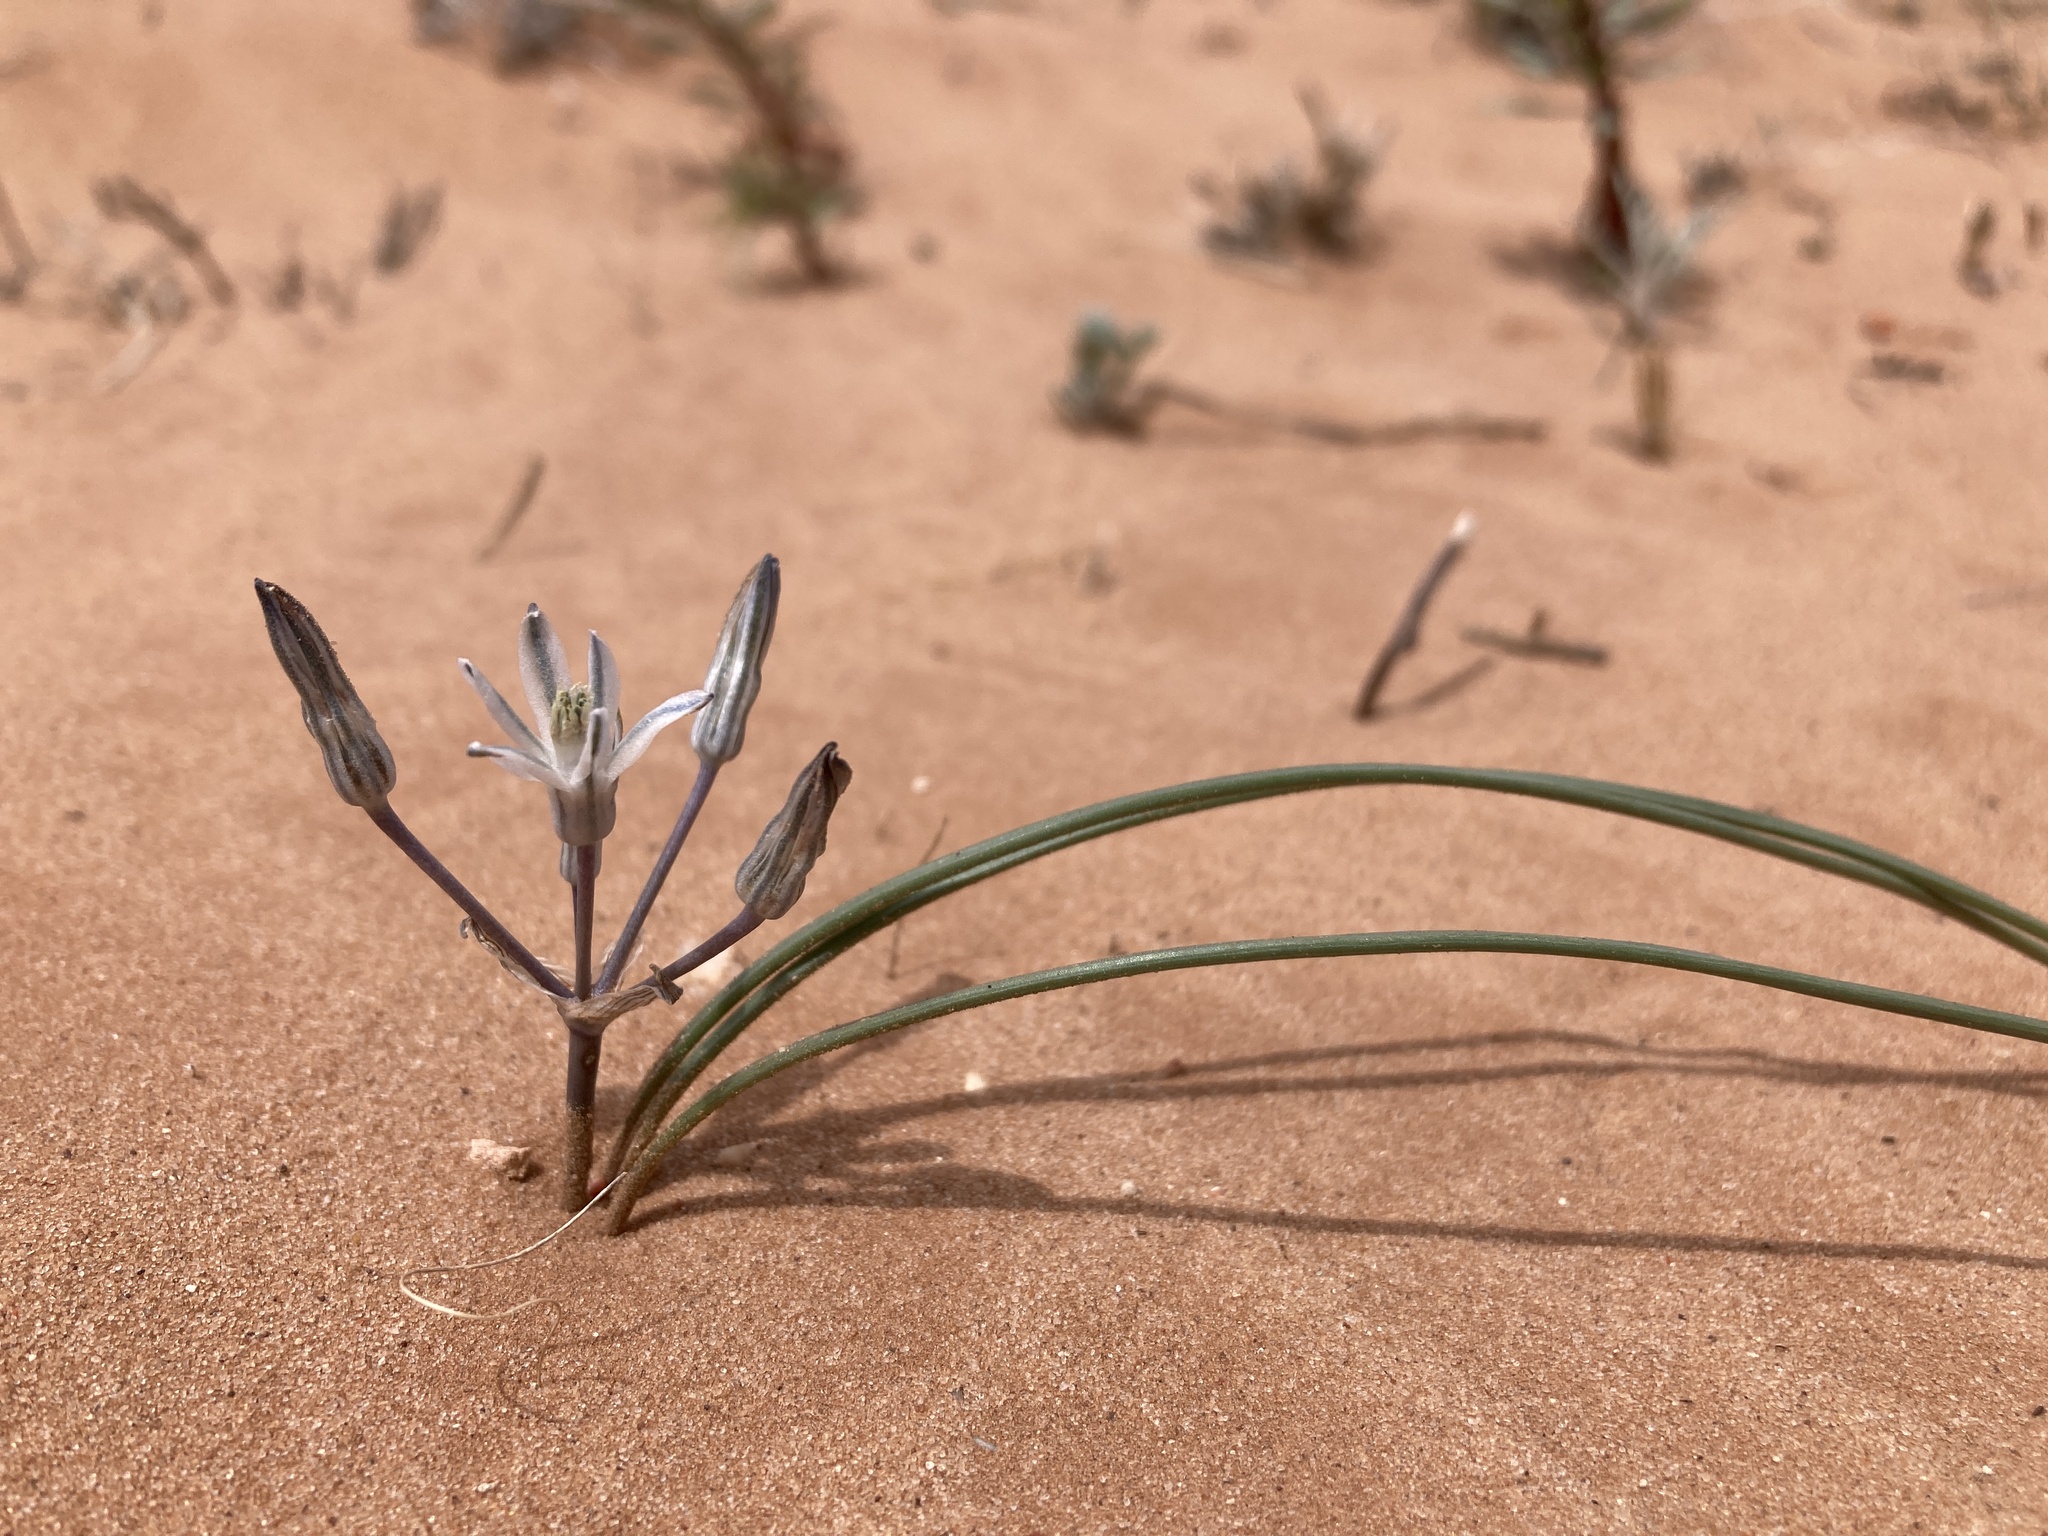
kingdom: Plantae
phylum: Tracheophyta
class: Liliopsida
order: Asparagales
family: Asparagaceae
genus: Androstephium
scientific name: Androstephium breviflorum
